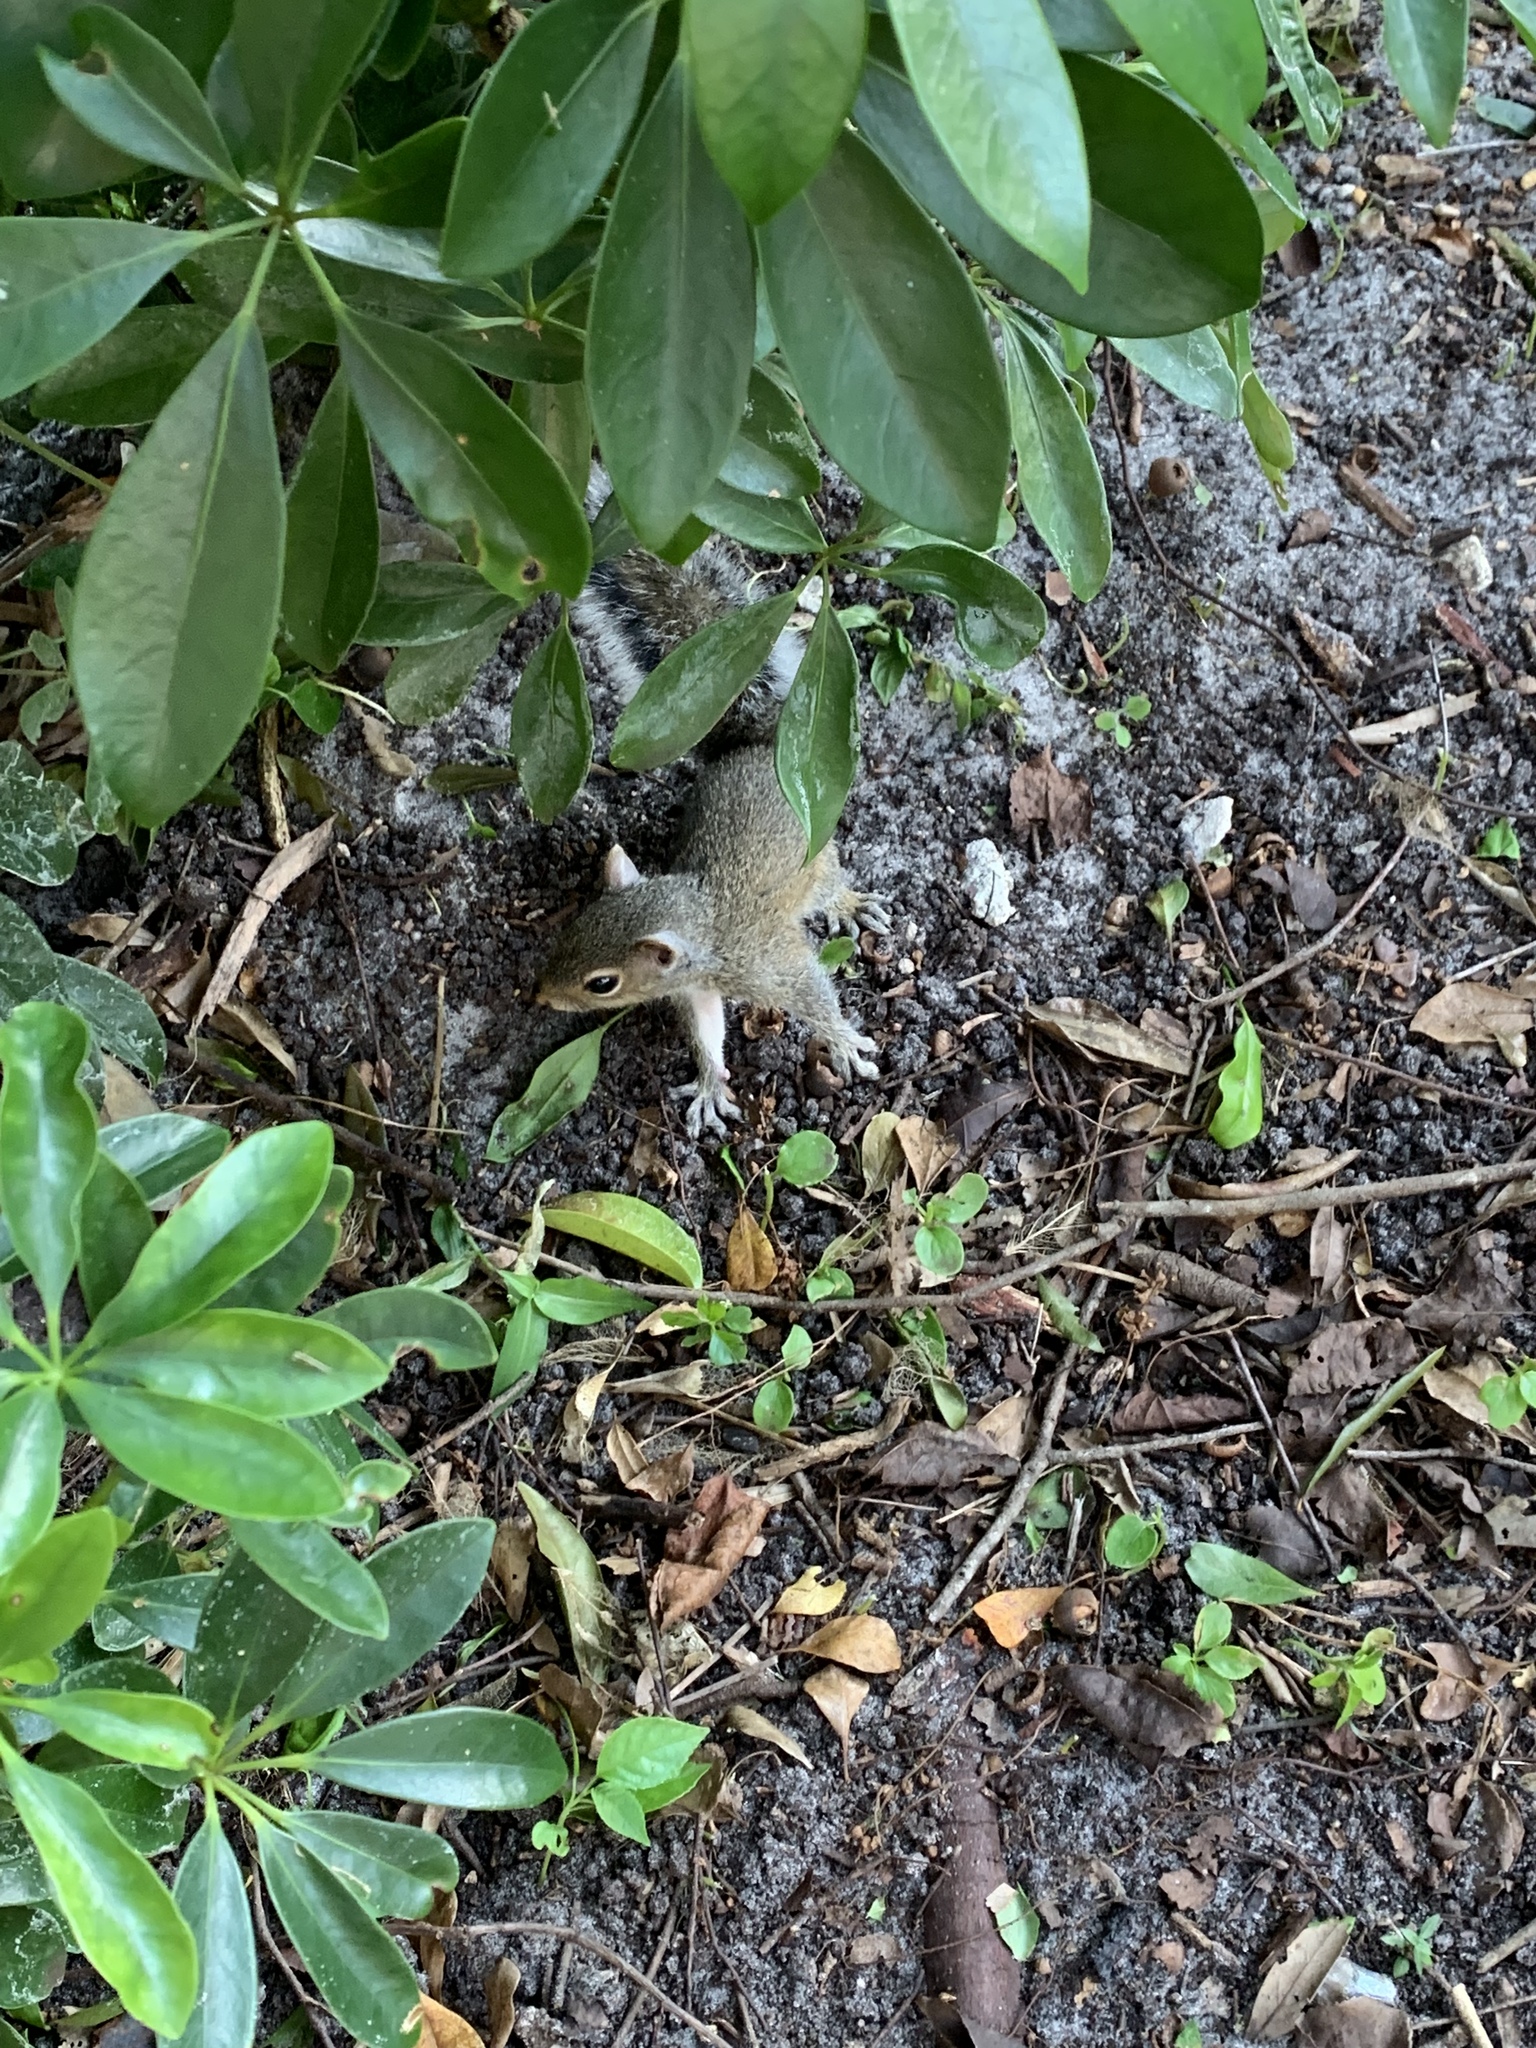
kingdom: Animalia
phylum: Chordata
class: Mammalia
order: Rodentia
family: Sciuridae
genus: Sciurus
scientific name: Sciurus carolinensis
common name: Eastern gray squirrel
